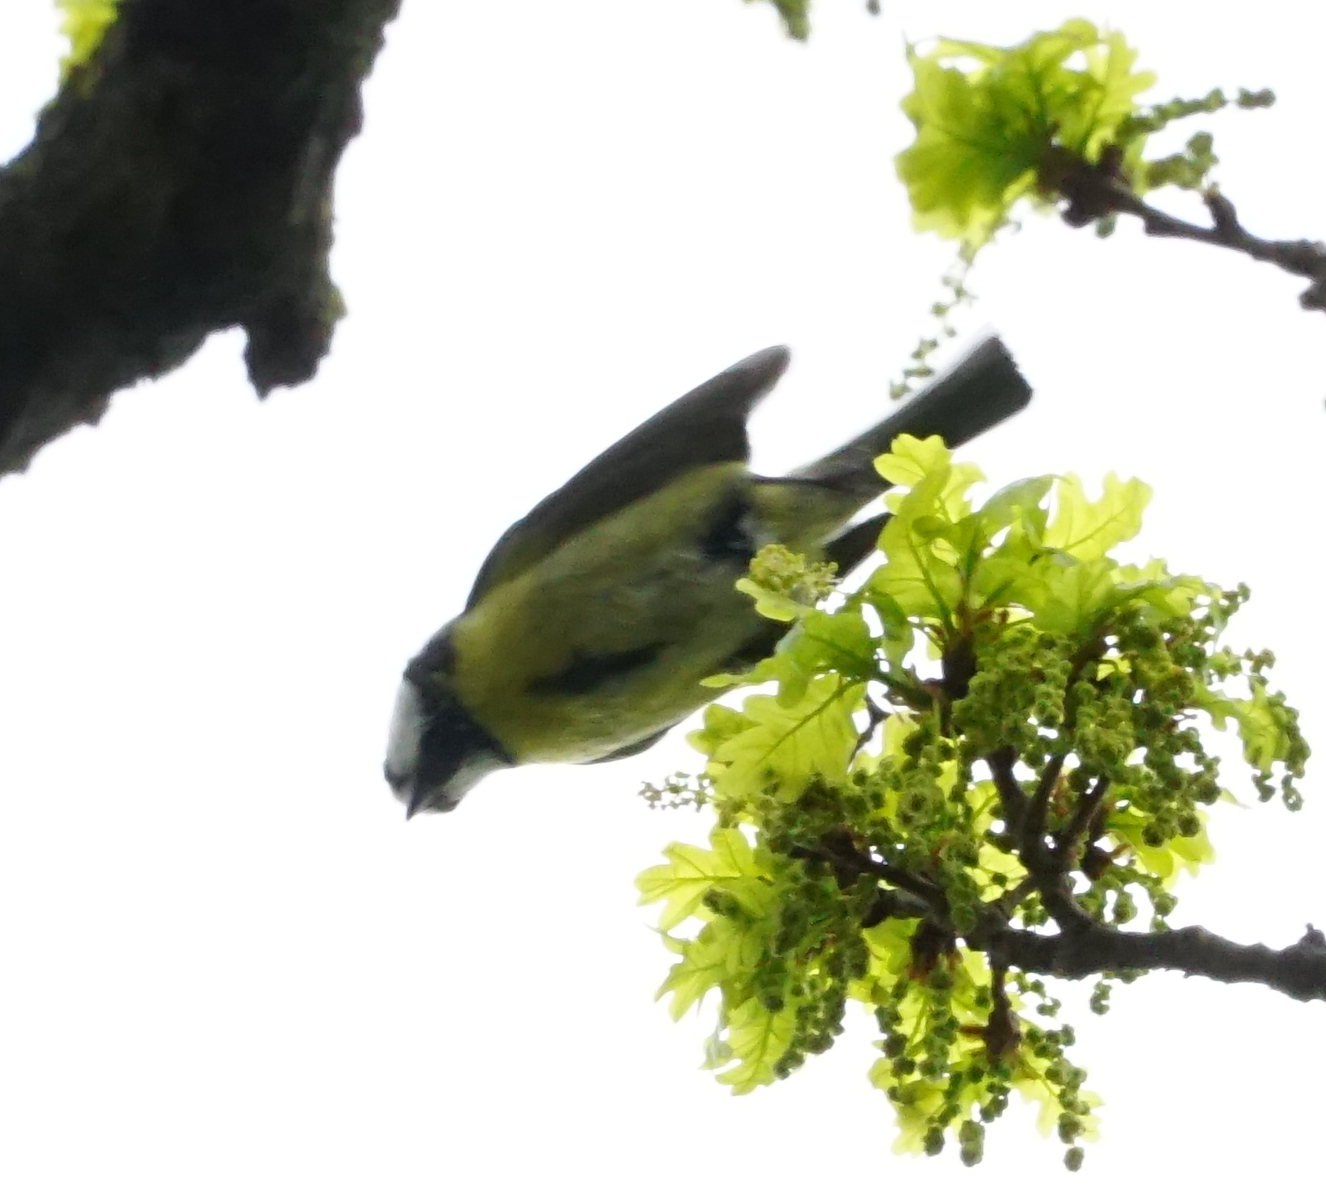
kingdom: Animalia
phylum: Chordata
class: Aves
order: Passeriformes
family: Paridae
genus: Cyanistes
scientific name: Cyanistes caeruleus
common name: Eurasian blue tit
